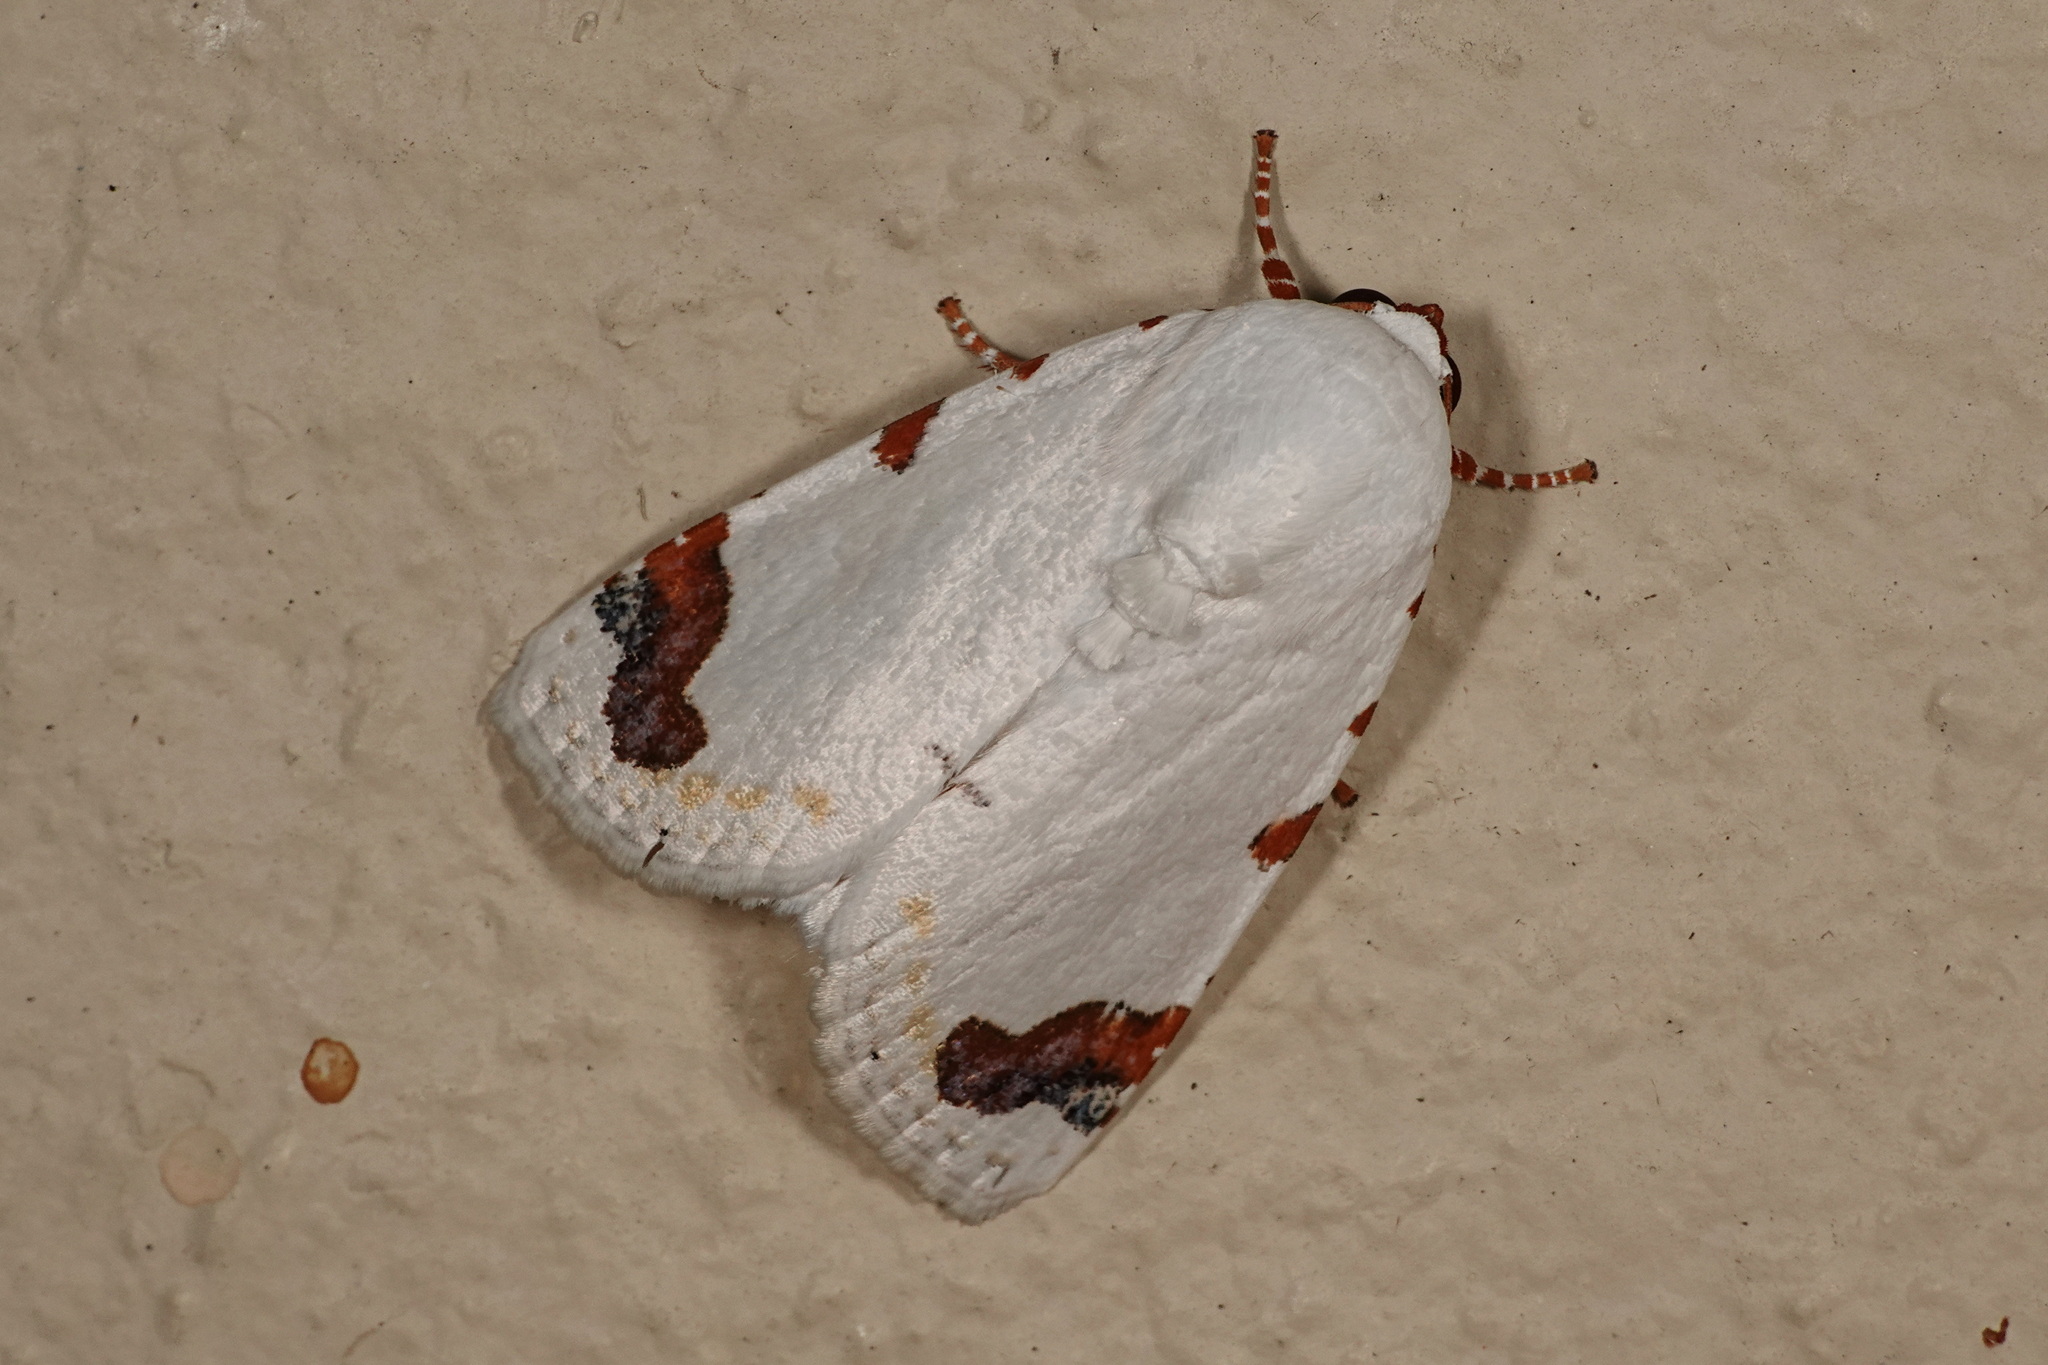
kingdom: Animalia
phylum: Arthropoda
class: Insecta
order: Lepidoptera
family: Noctuidae
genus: Chasmina
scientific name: Chasmina pulchra
